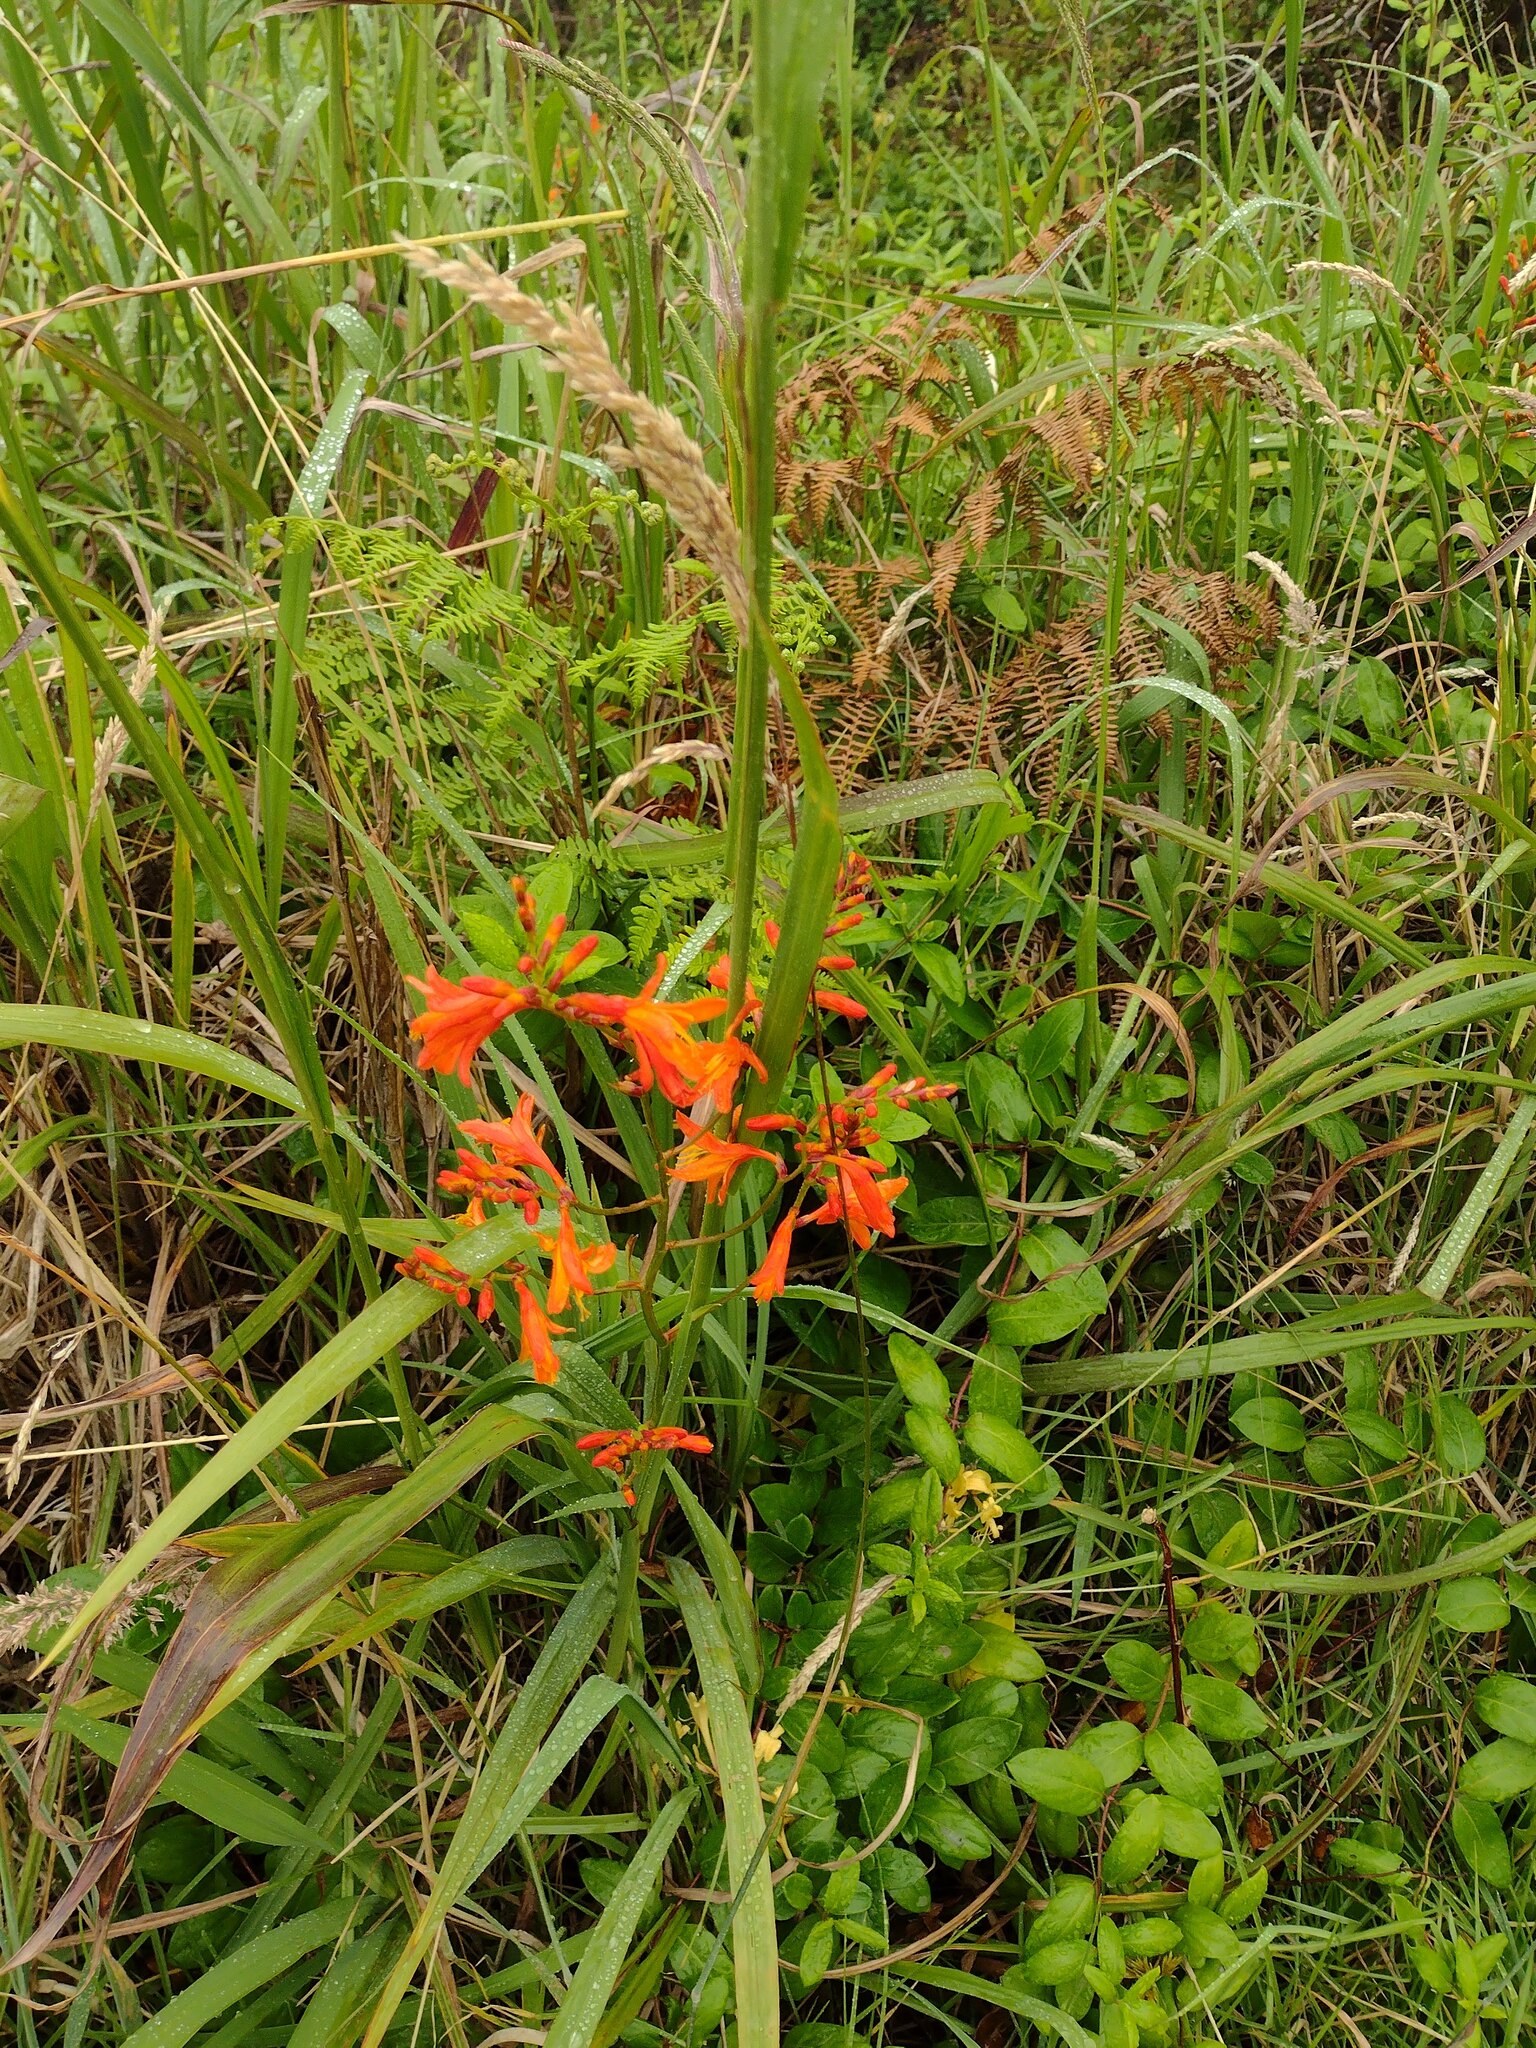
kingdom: Plantae
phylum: Tracheophyta
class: Liliopsida
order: Asparagales
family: Iridaceae
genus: Crocosmia
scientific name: Crocosmia crocosmiiflora
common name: Montbretia
